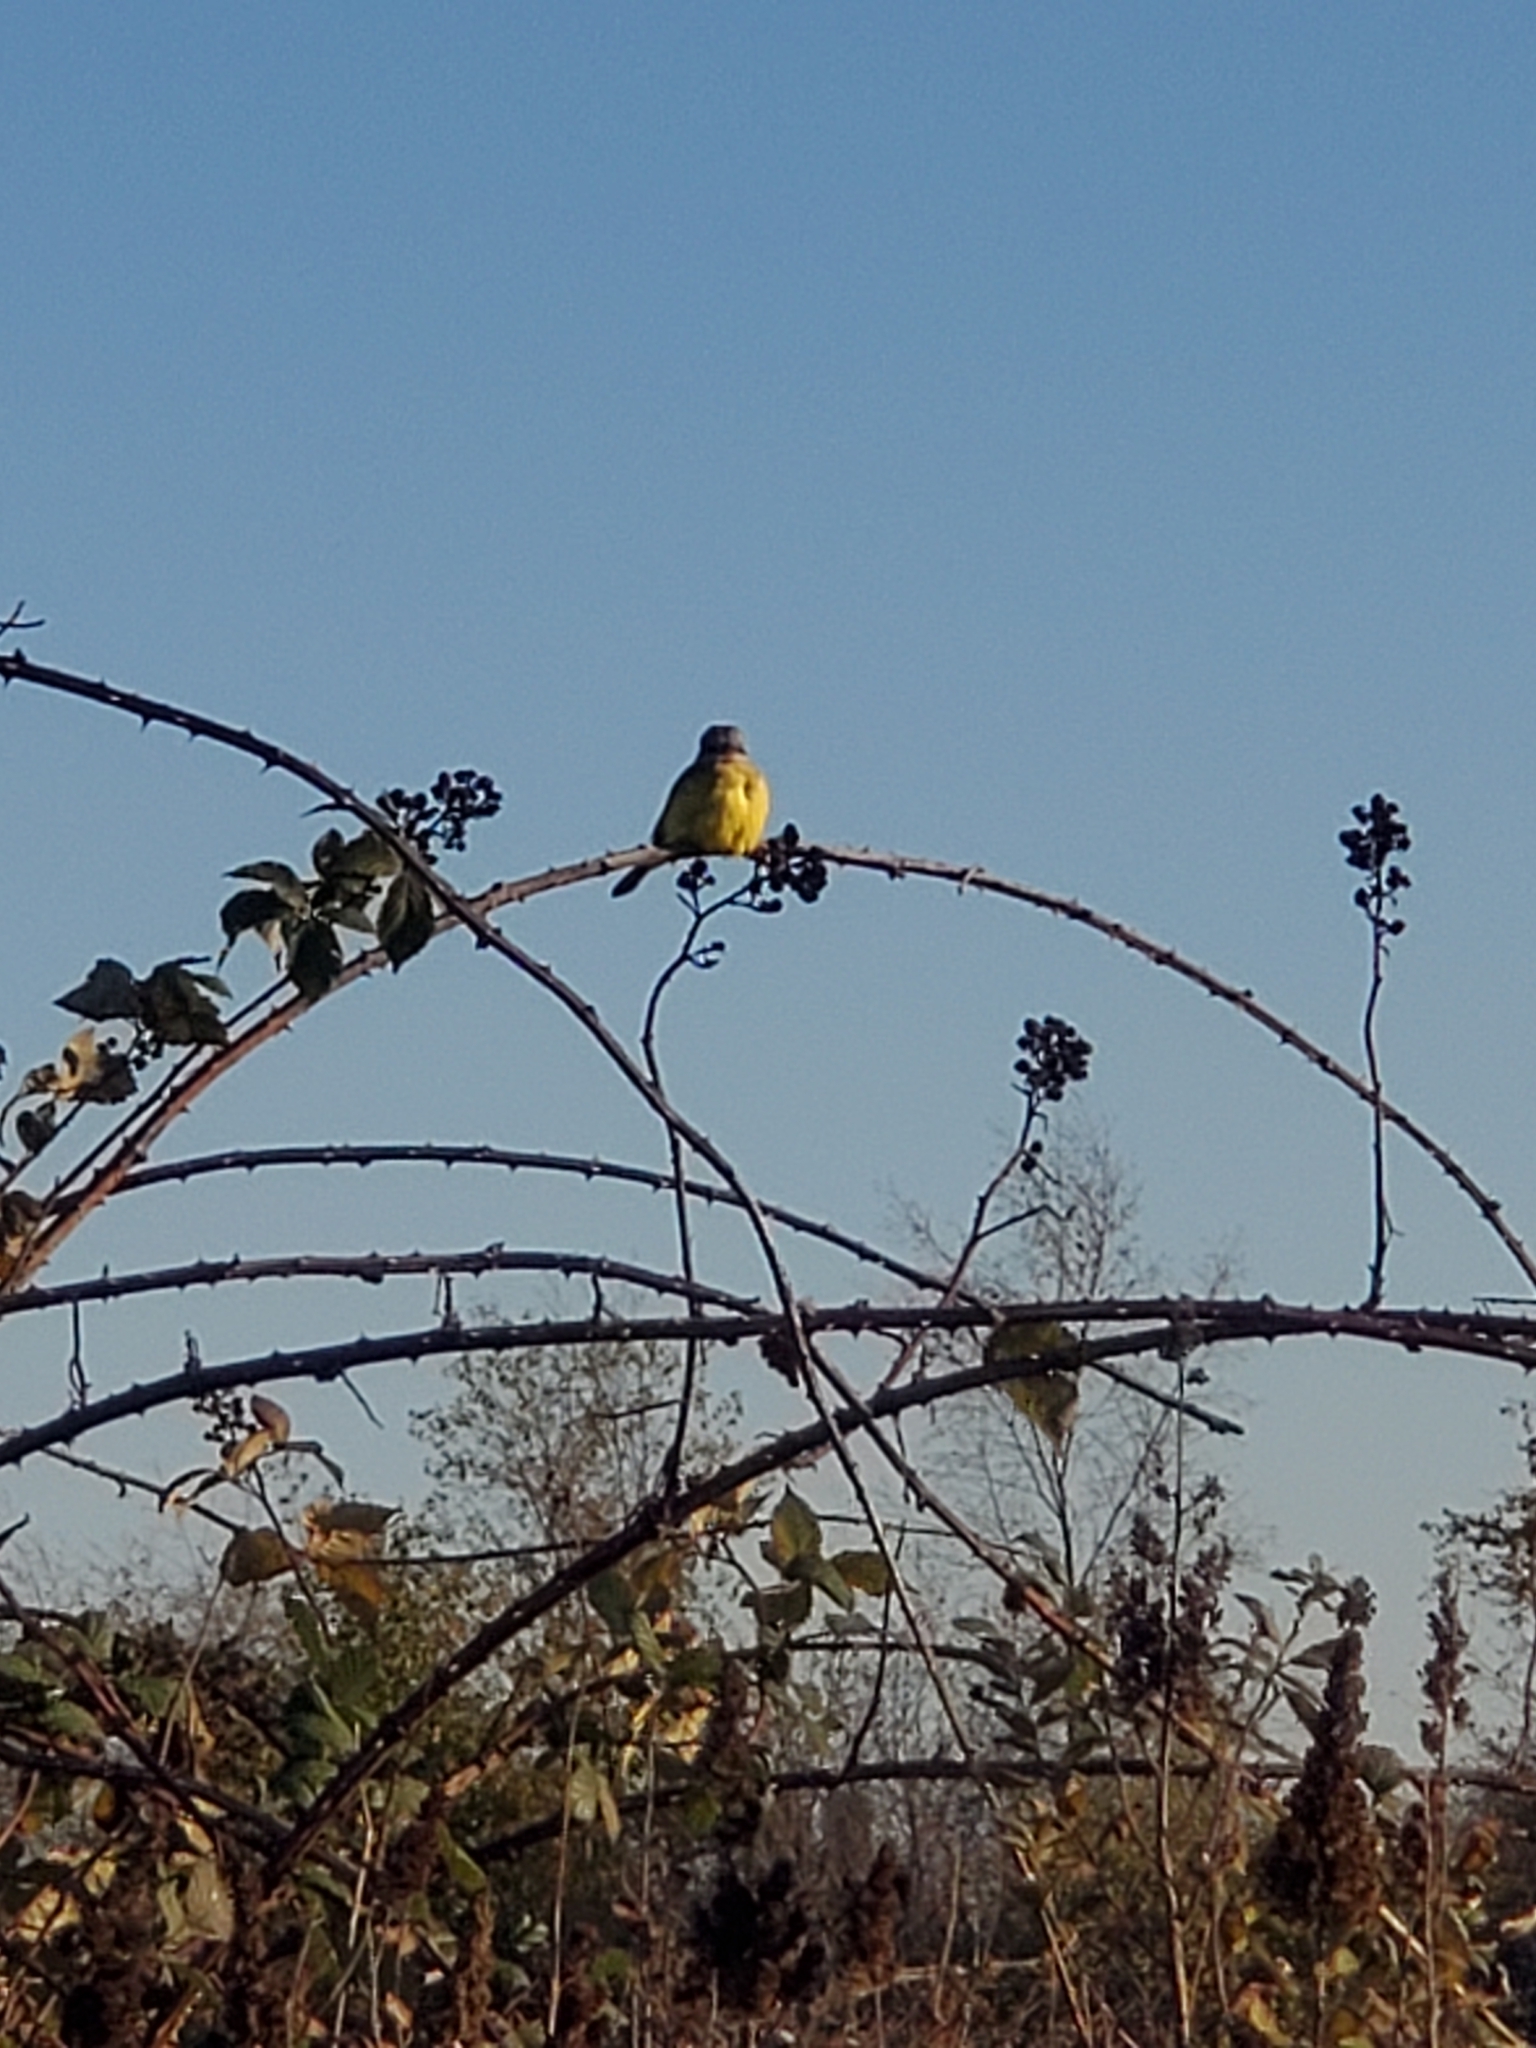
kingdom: Animalia
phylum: Chordata
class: Aves
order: Passeriformes
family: Tyrannidae
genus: Tyrannus
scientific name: Tyrannus melancholicus
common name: Tropical kingbird
